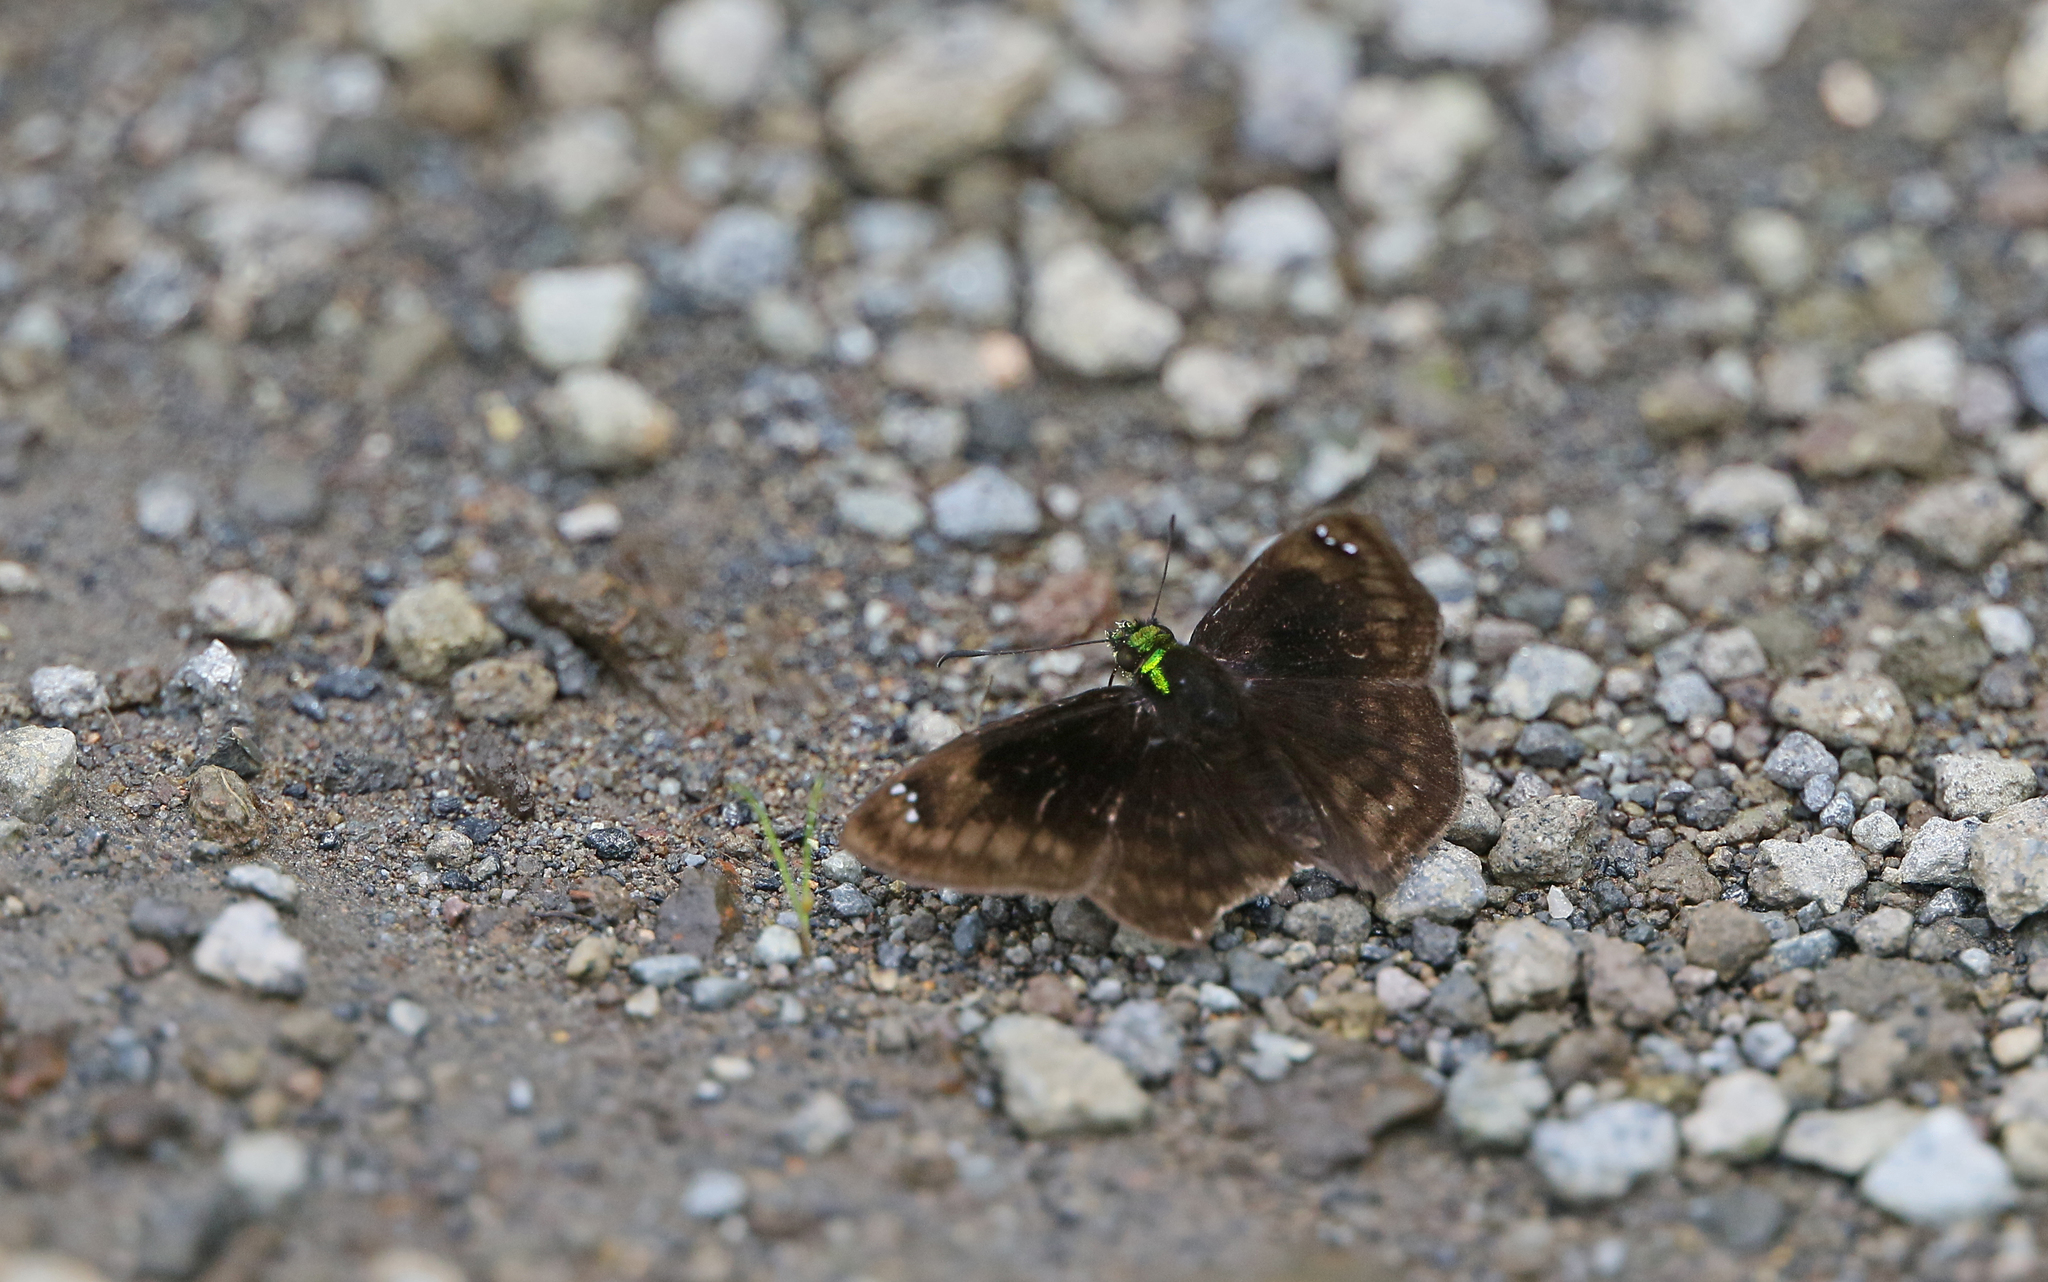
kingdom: Animalia
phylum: Arthropoda
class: Insecta
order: Lepidoptera
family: Hesperiidae
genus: Gorgopas
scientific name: Gorgopas chlorocephala
